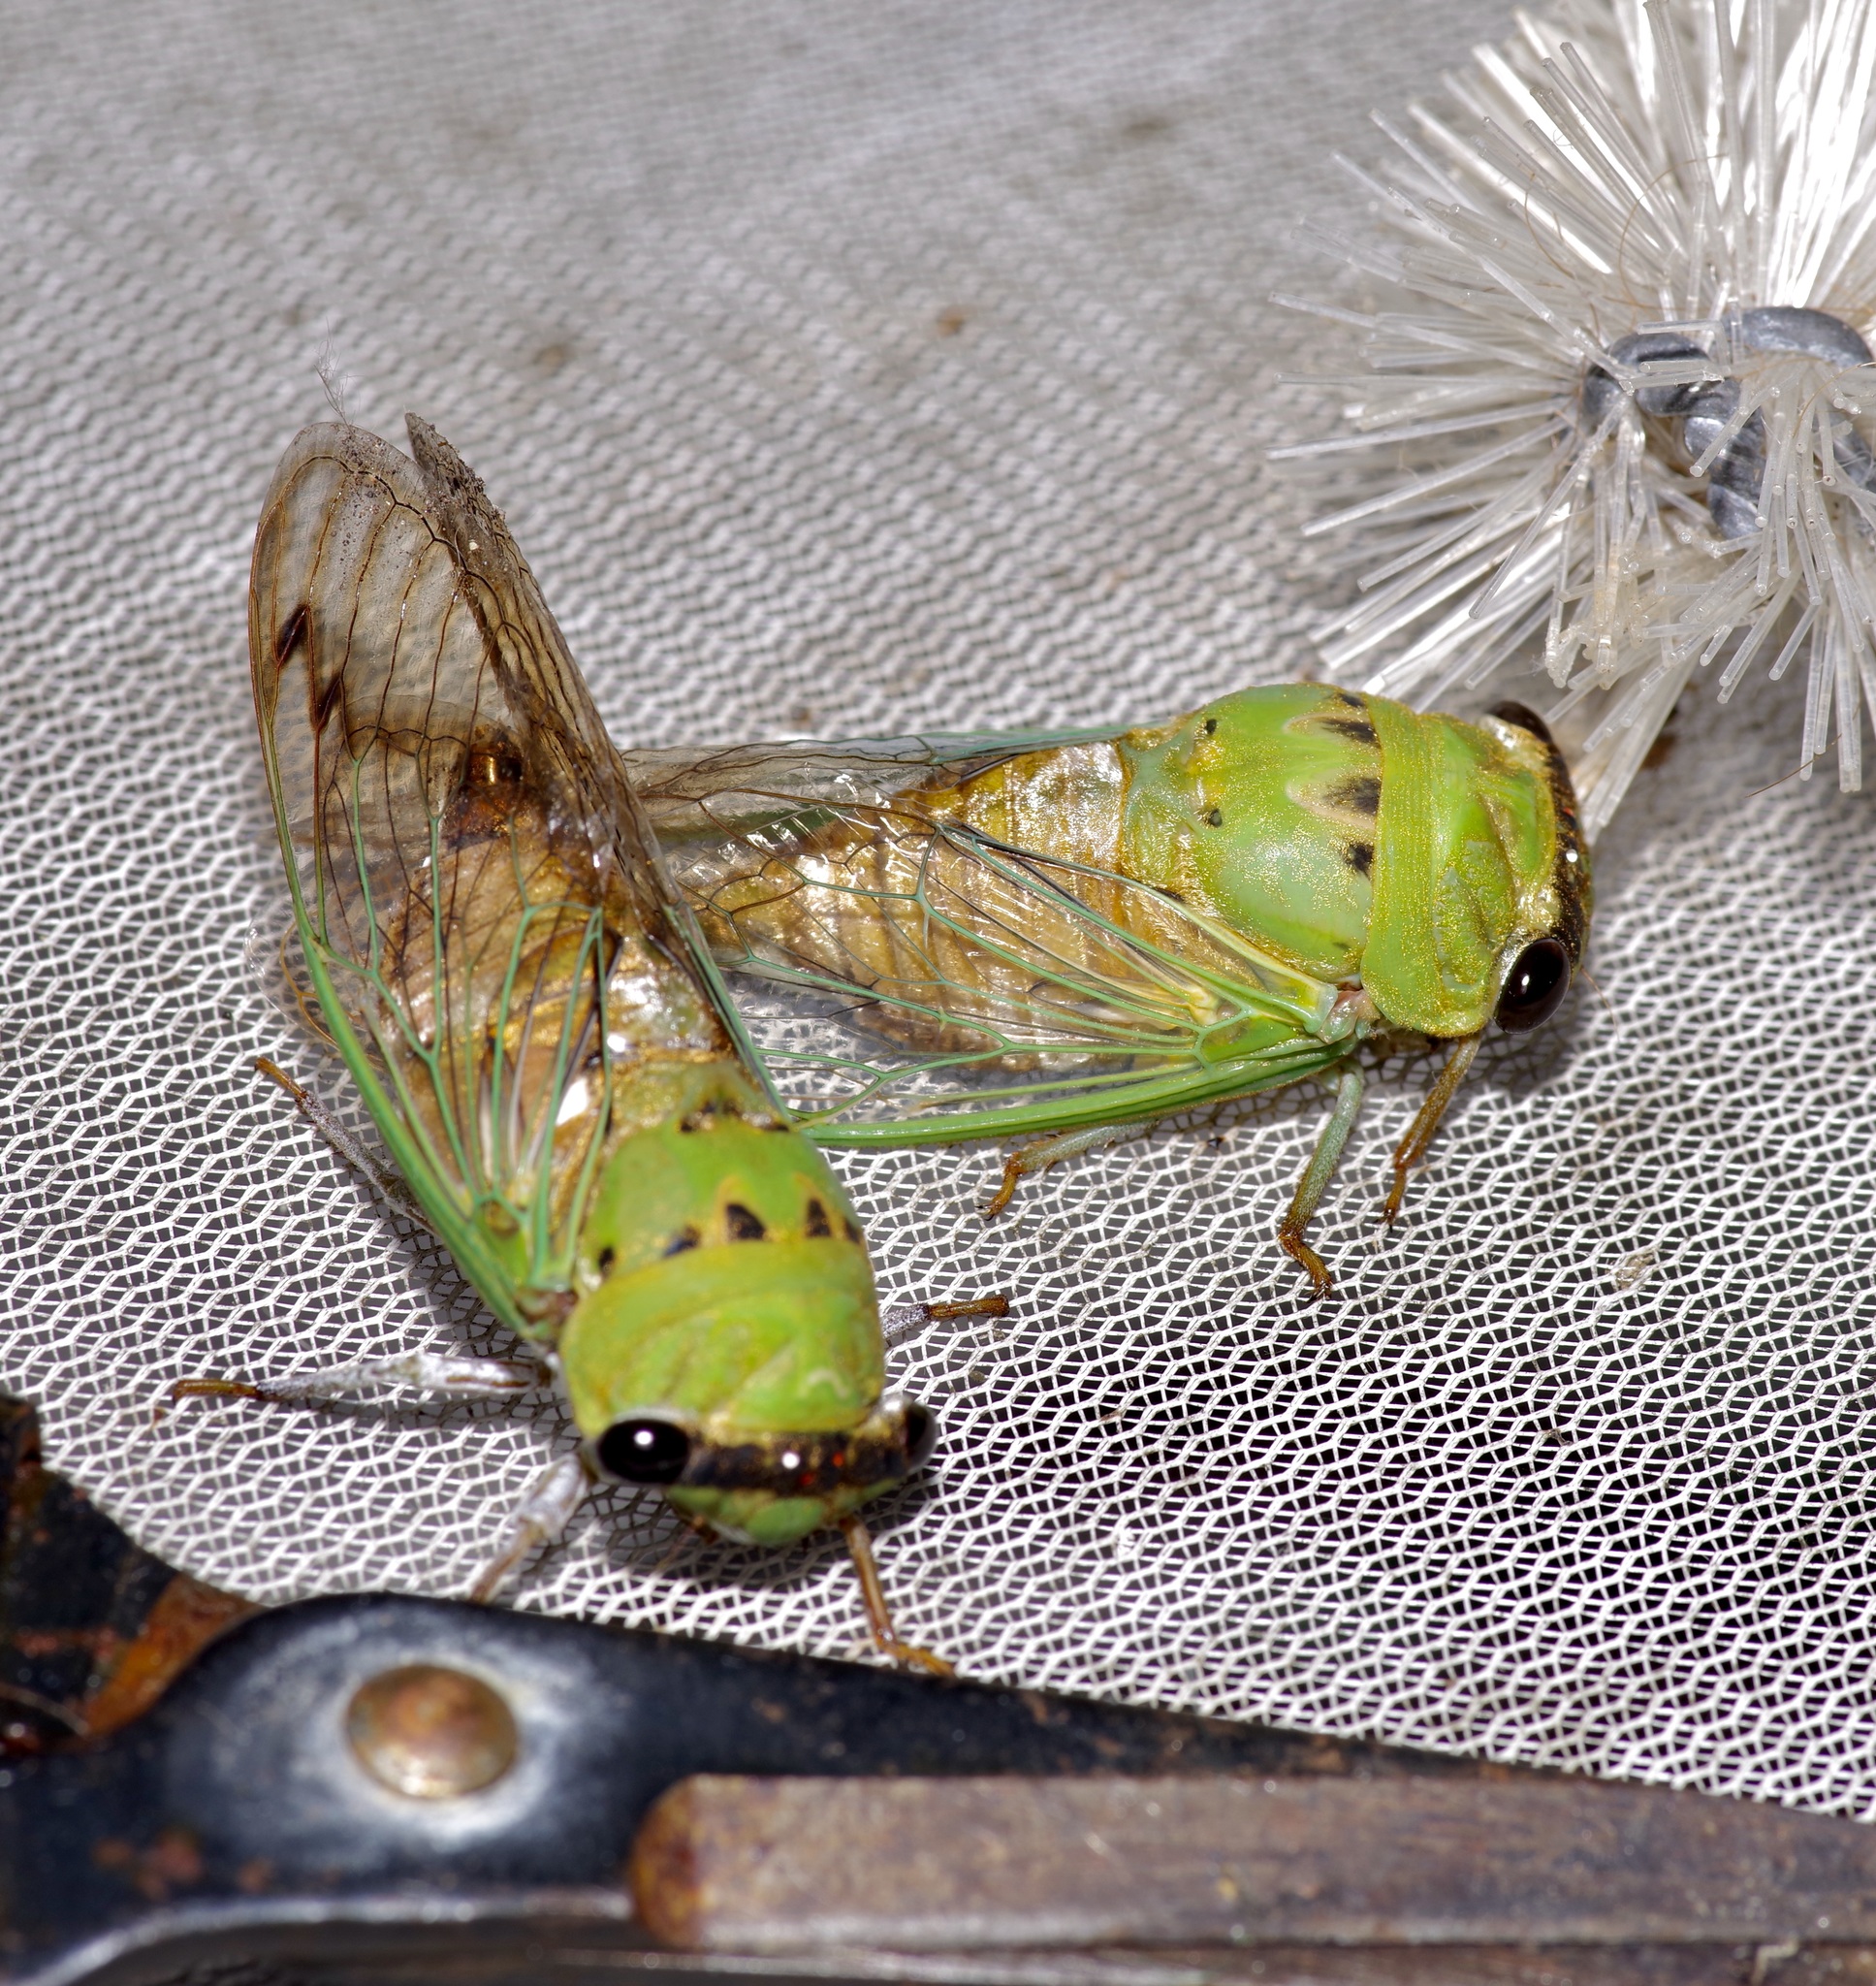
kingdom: Animalia
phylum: Arthropoda
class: Insecta
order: Hemiptera
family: Cicadidae
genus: Neotibicen
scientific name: Neotibicen superbus
